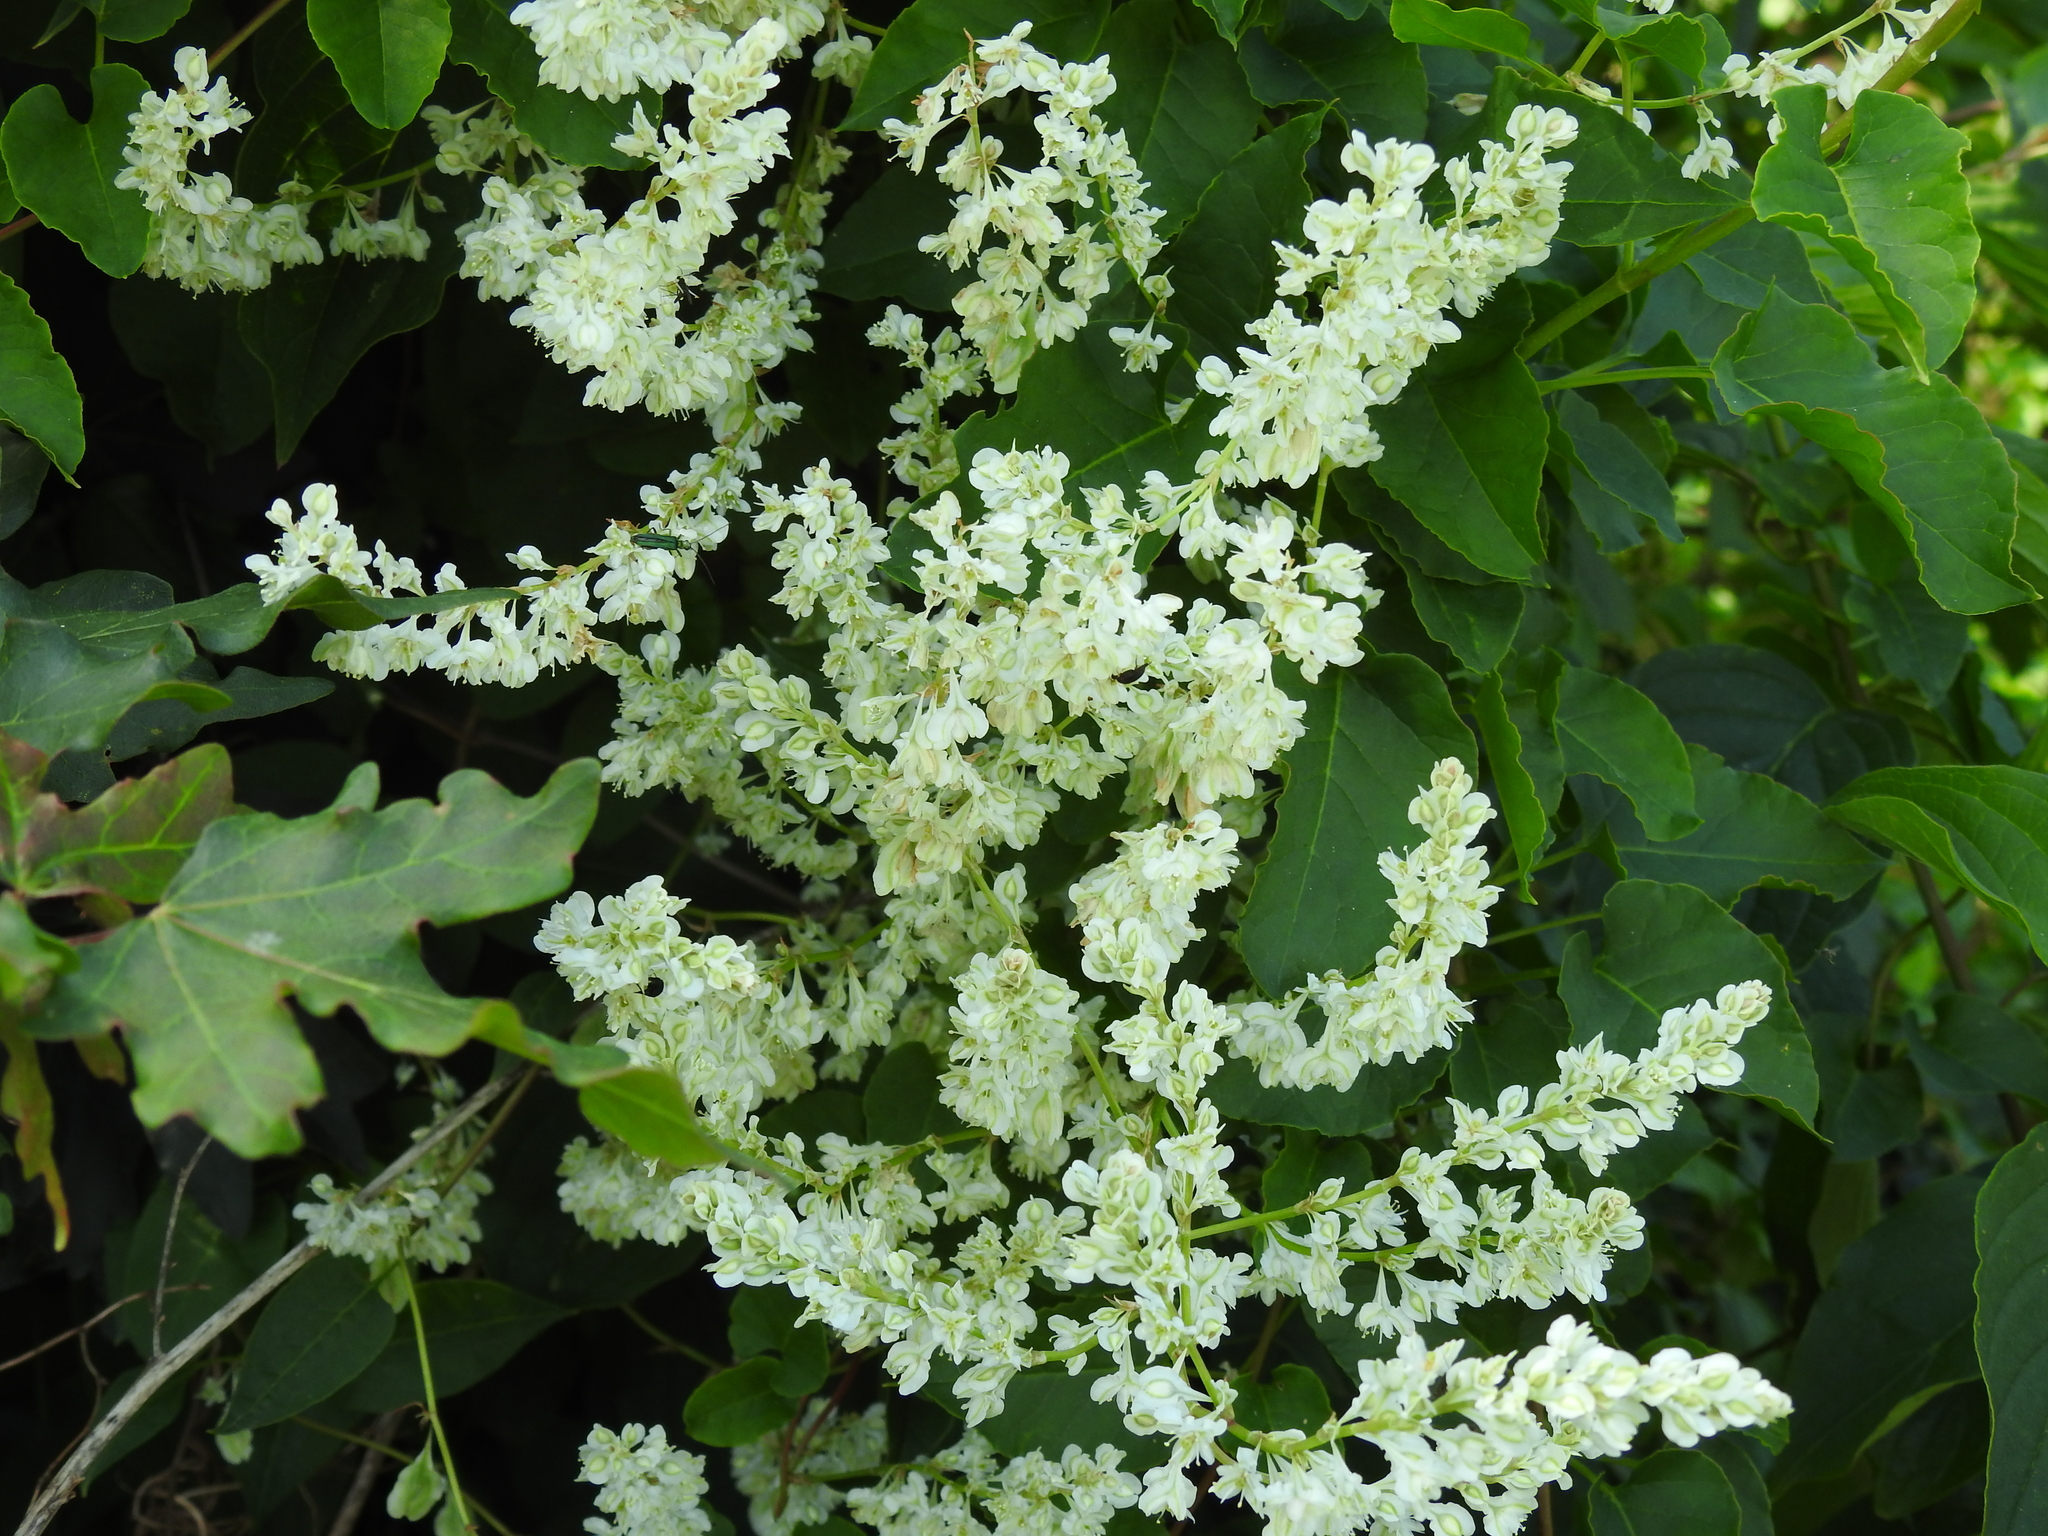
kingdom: Plantae
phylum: Tracheophyta
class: Magnoliopsida
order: Caryophyllales
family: Polygonaceae
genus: Fallopia
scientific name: Fallopia baldschuanica
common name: Russian-vine
